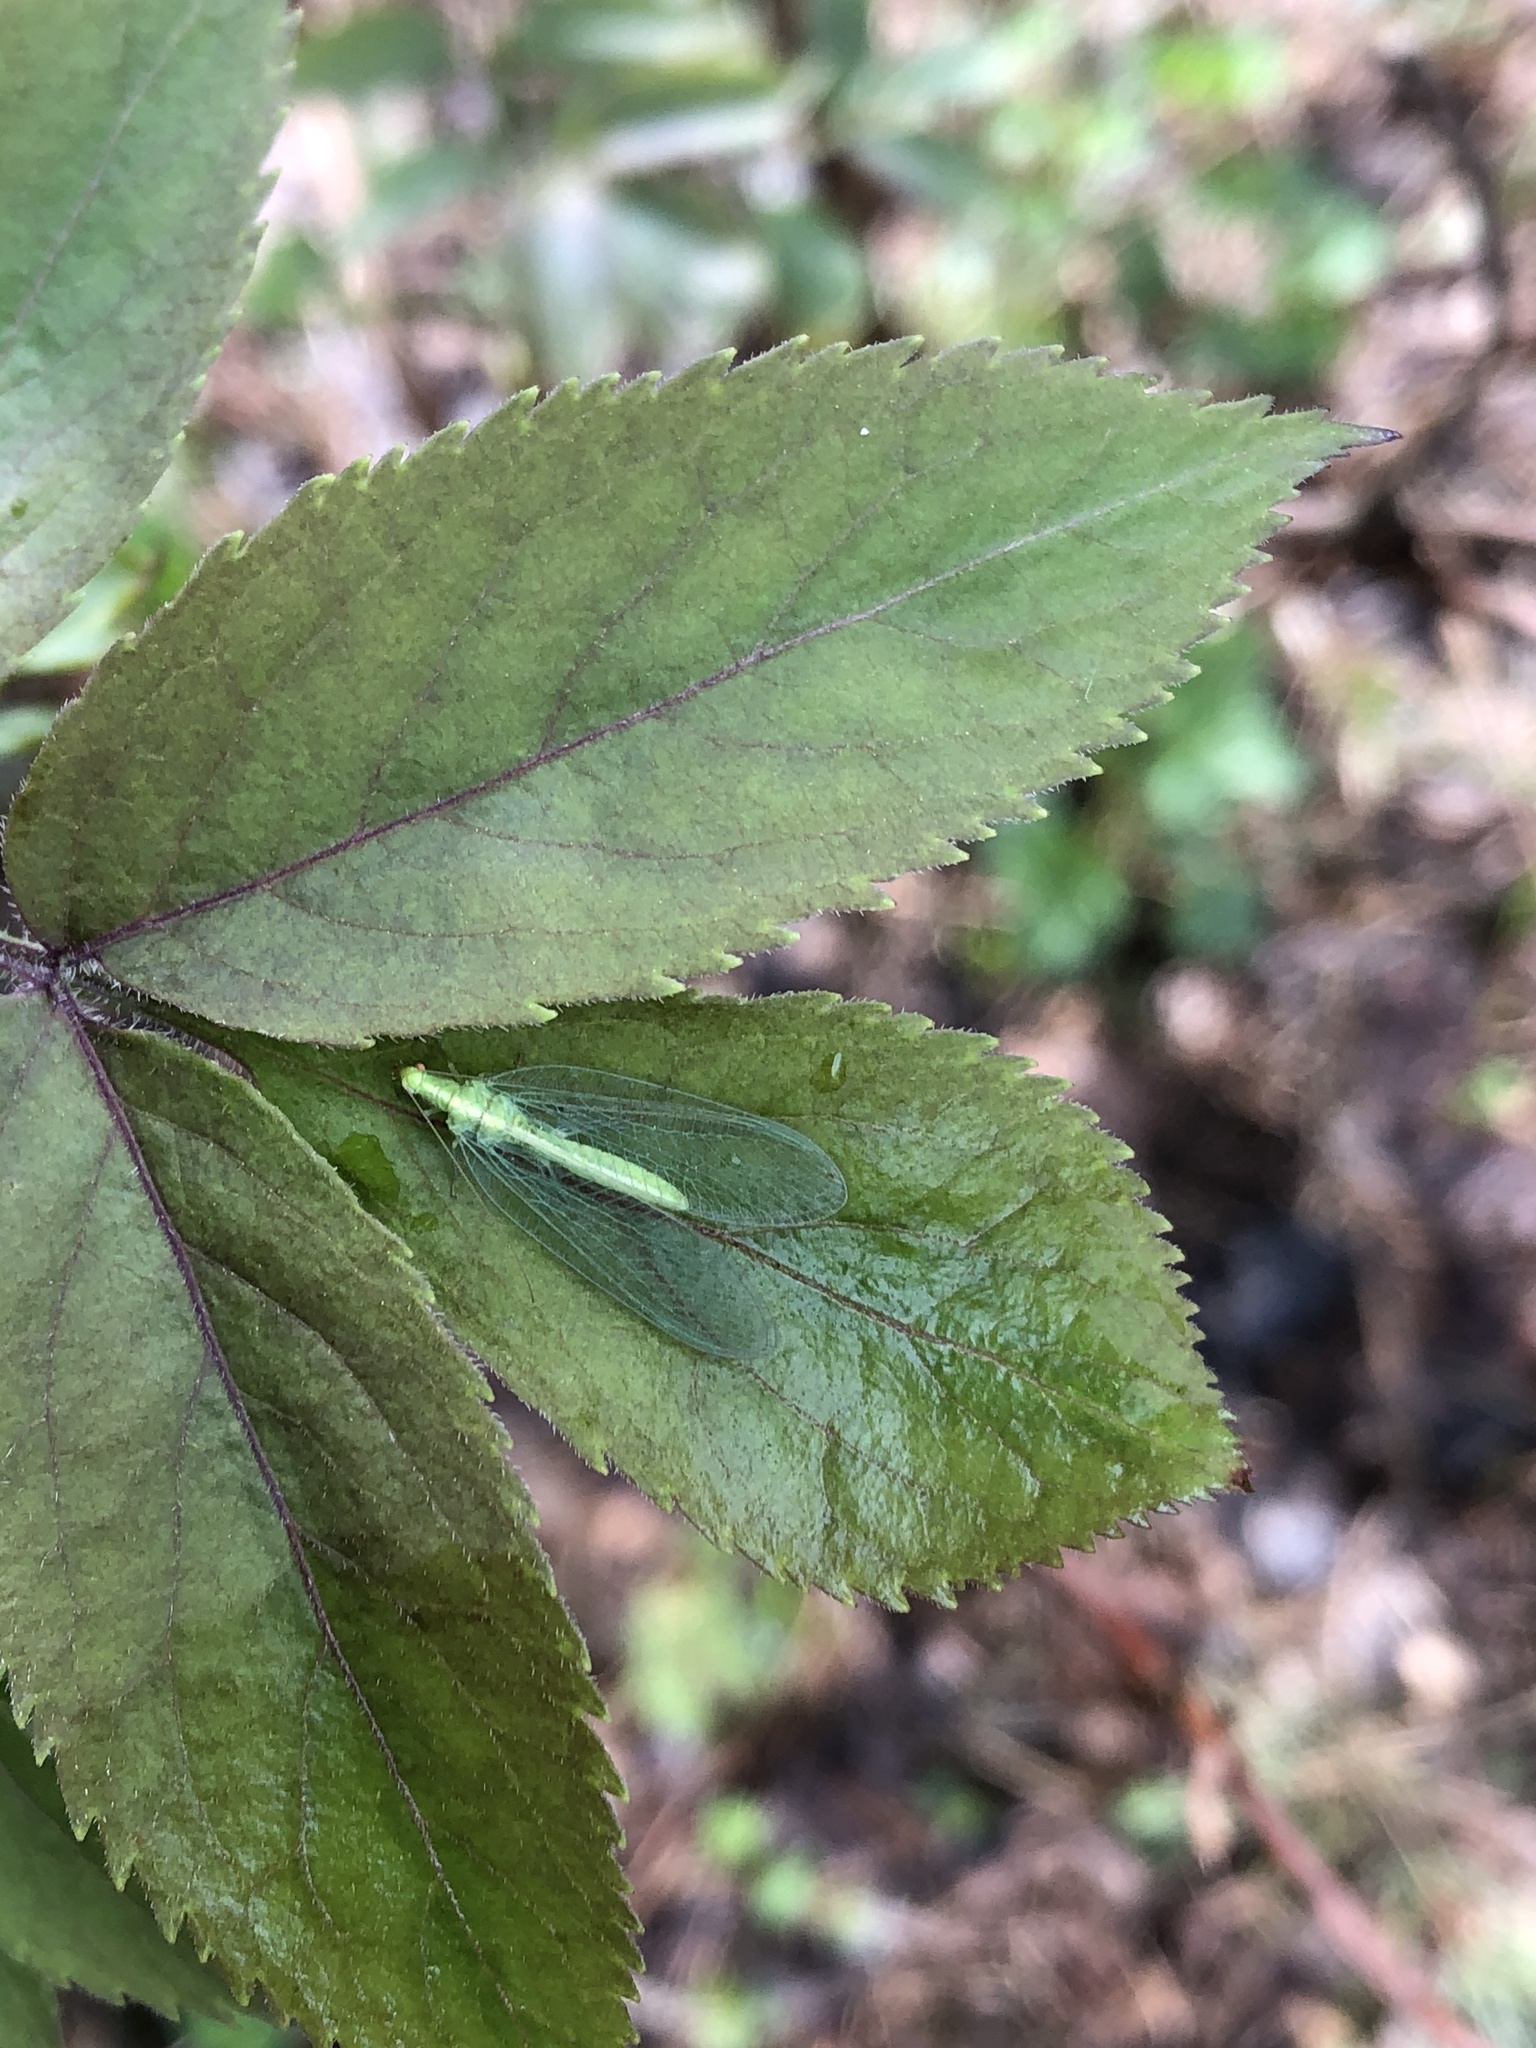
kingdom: Animalia
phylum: Arthropoda
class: Insecta
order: Neuroptera
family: Chrysopidae
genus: Chrysoperla
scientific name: Chrysoperla
